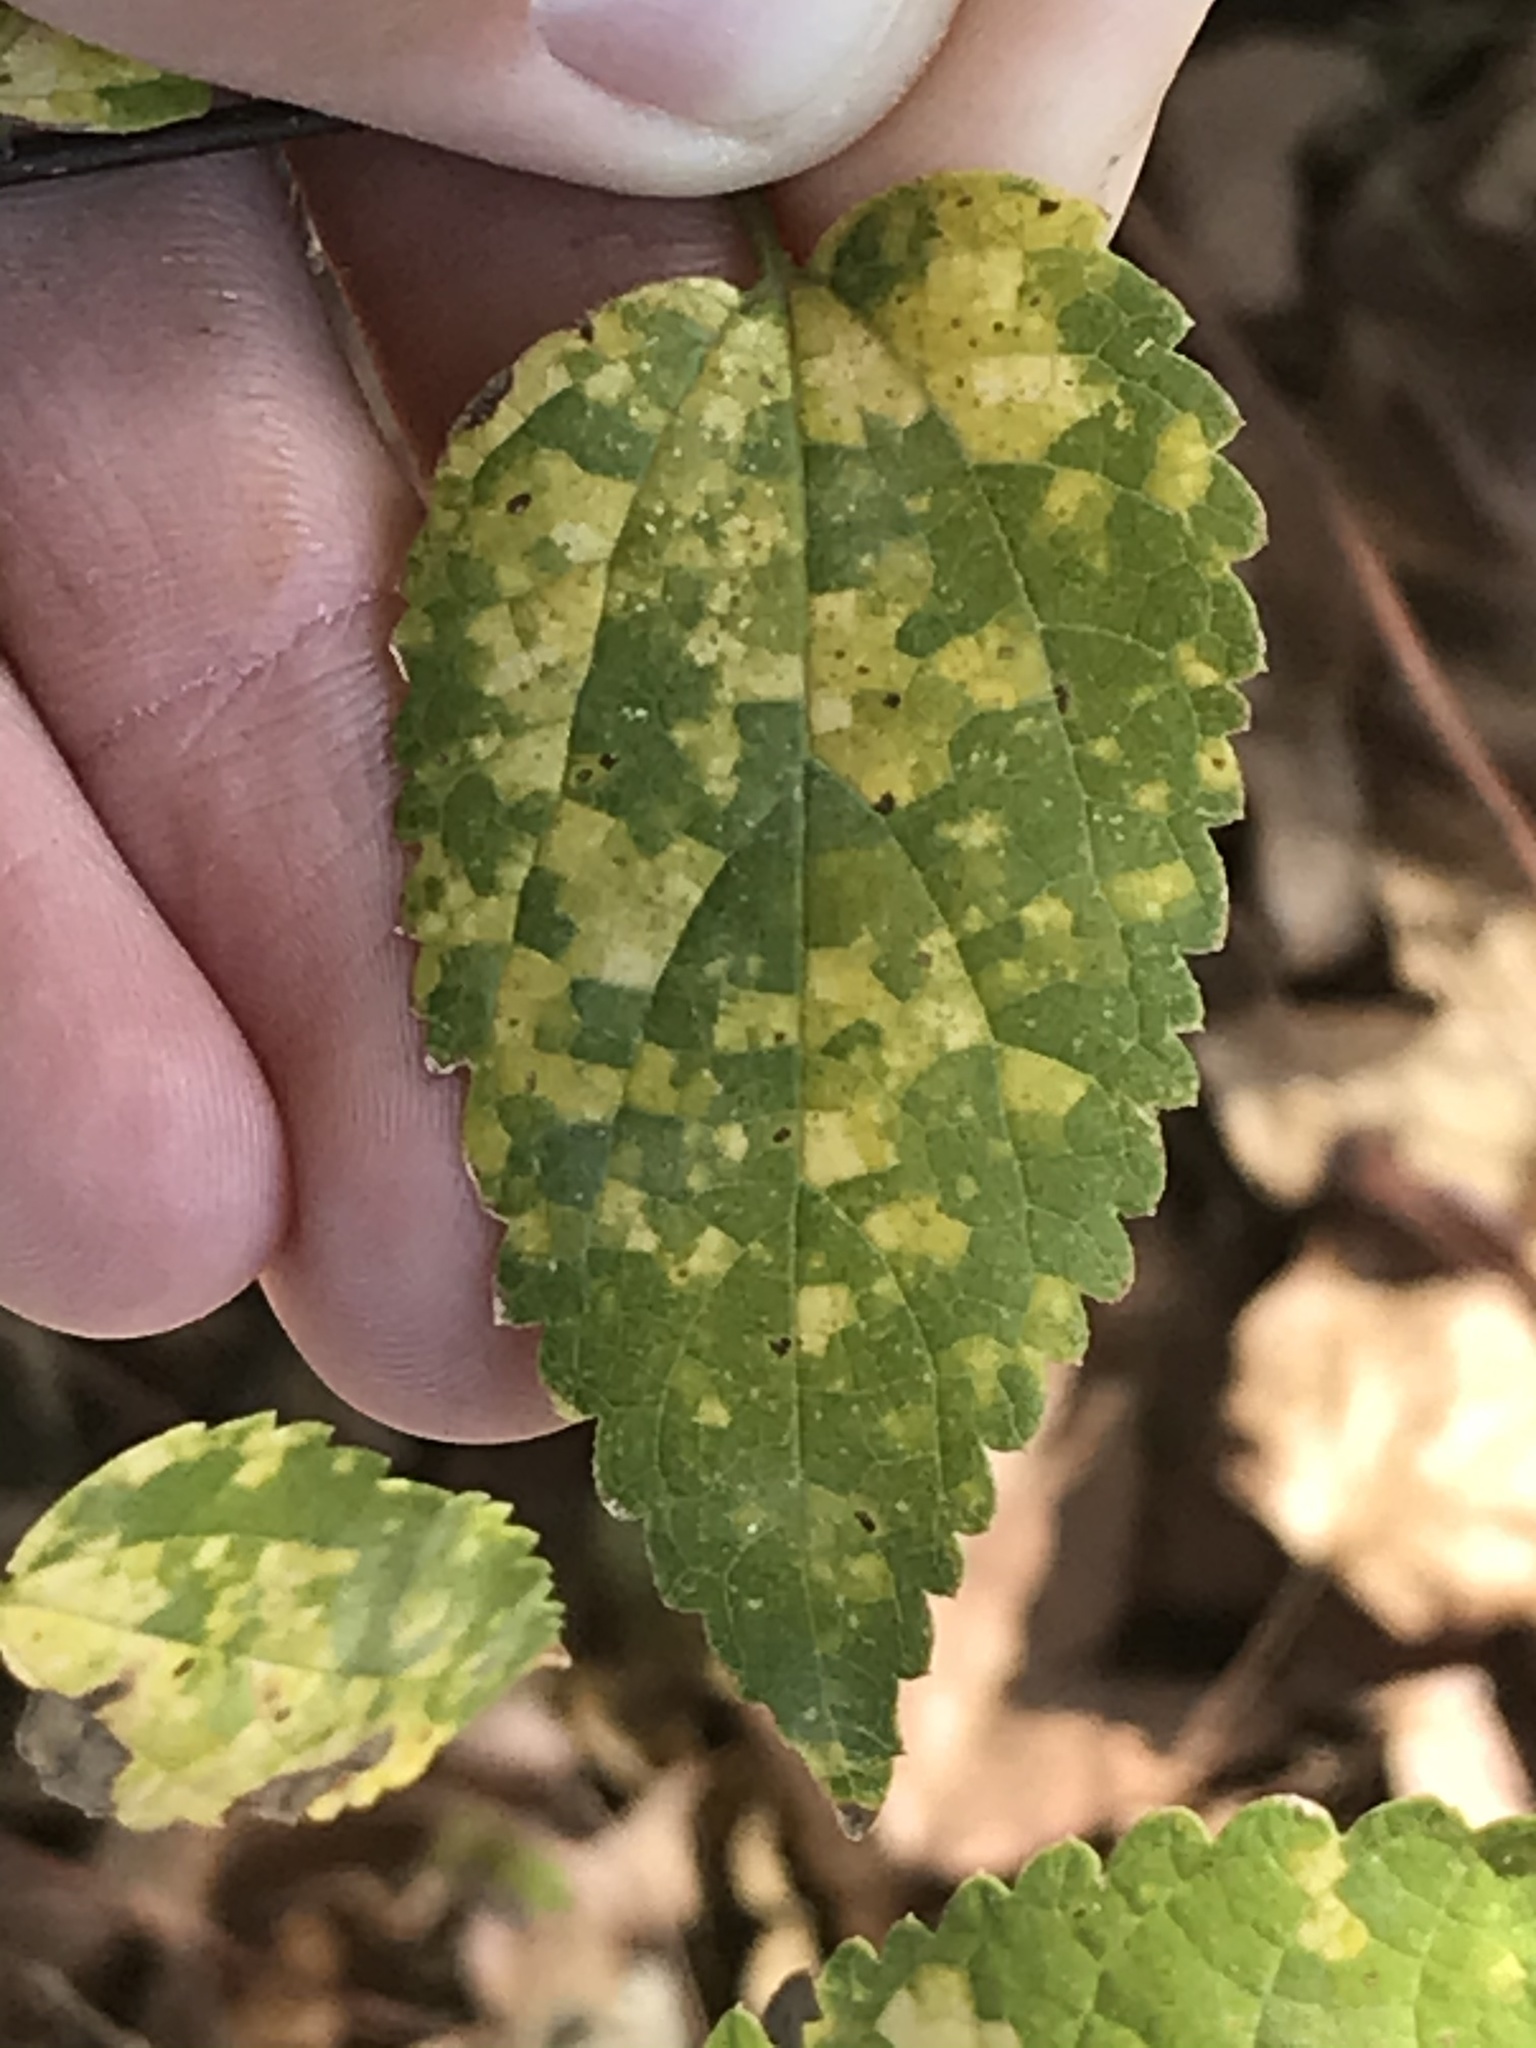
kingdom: Viruses
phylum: Kitrinoviricota
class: Alsuviricetes
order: Martellivirales
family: Closteroviridae
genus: Ampelovirus
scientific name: Ampelovirus
